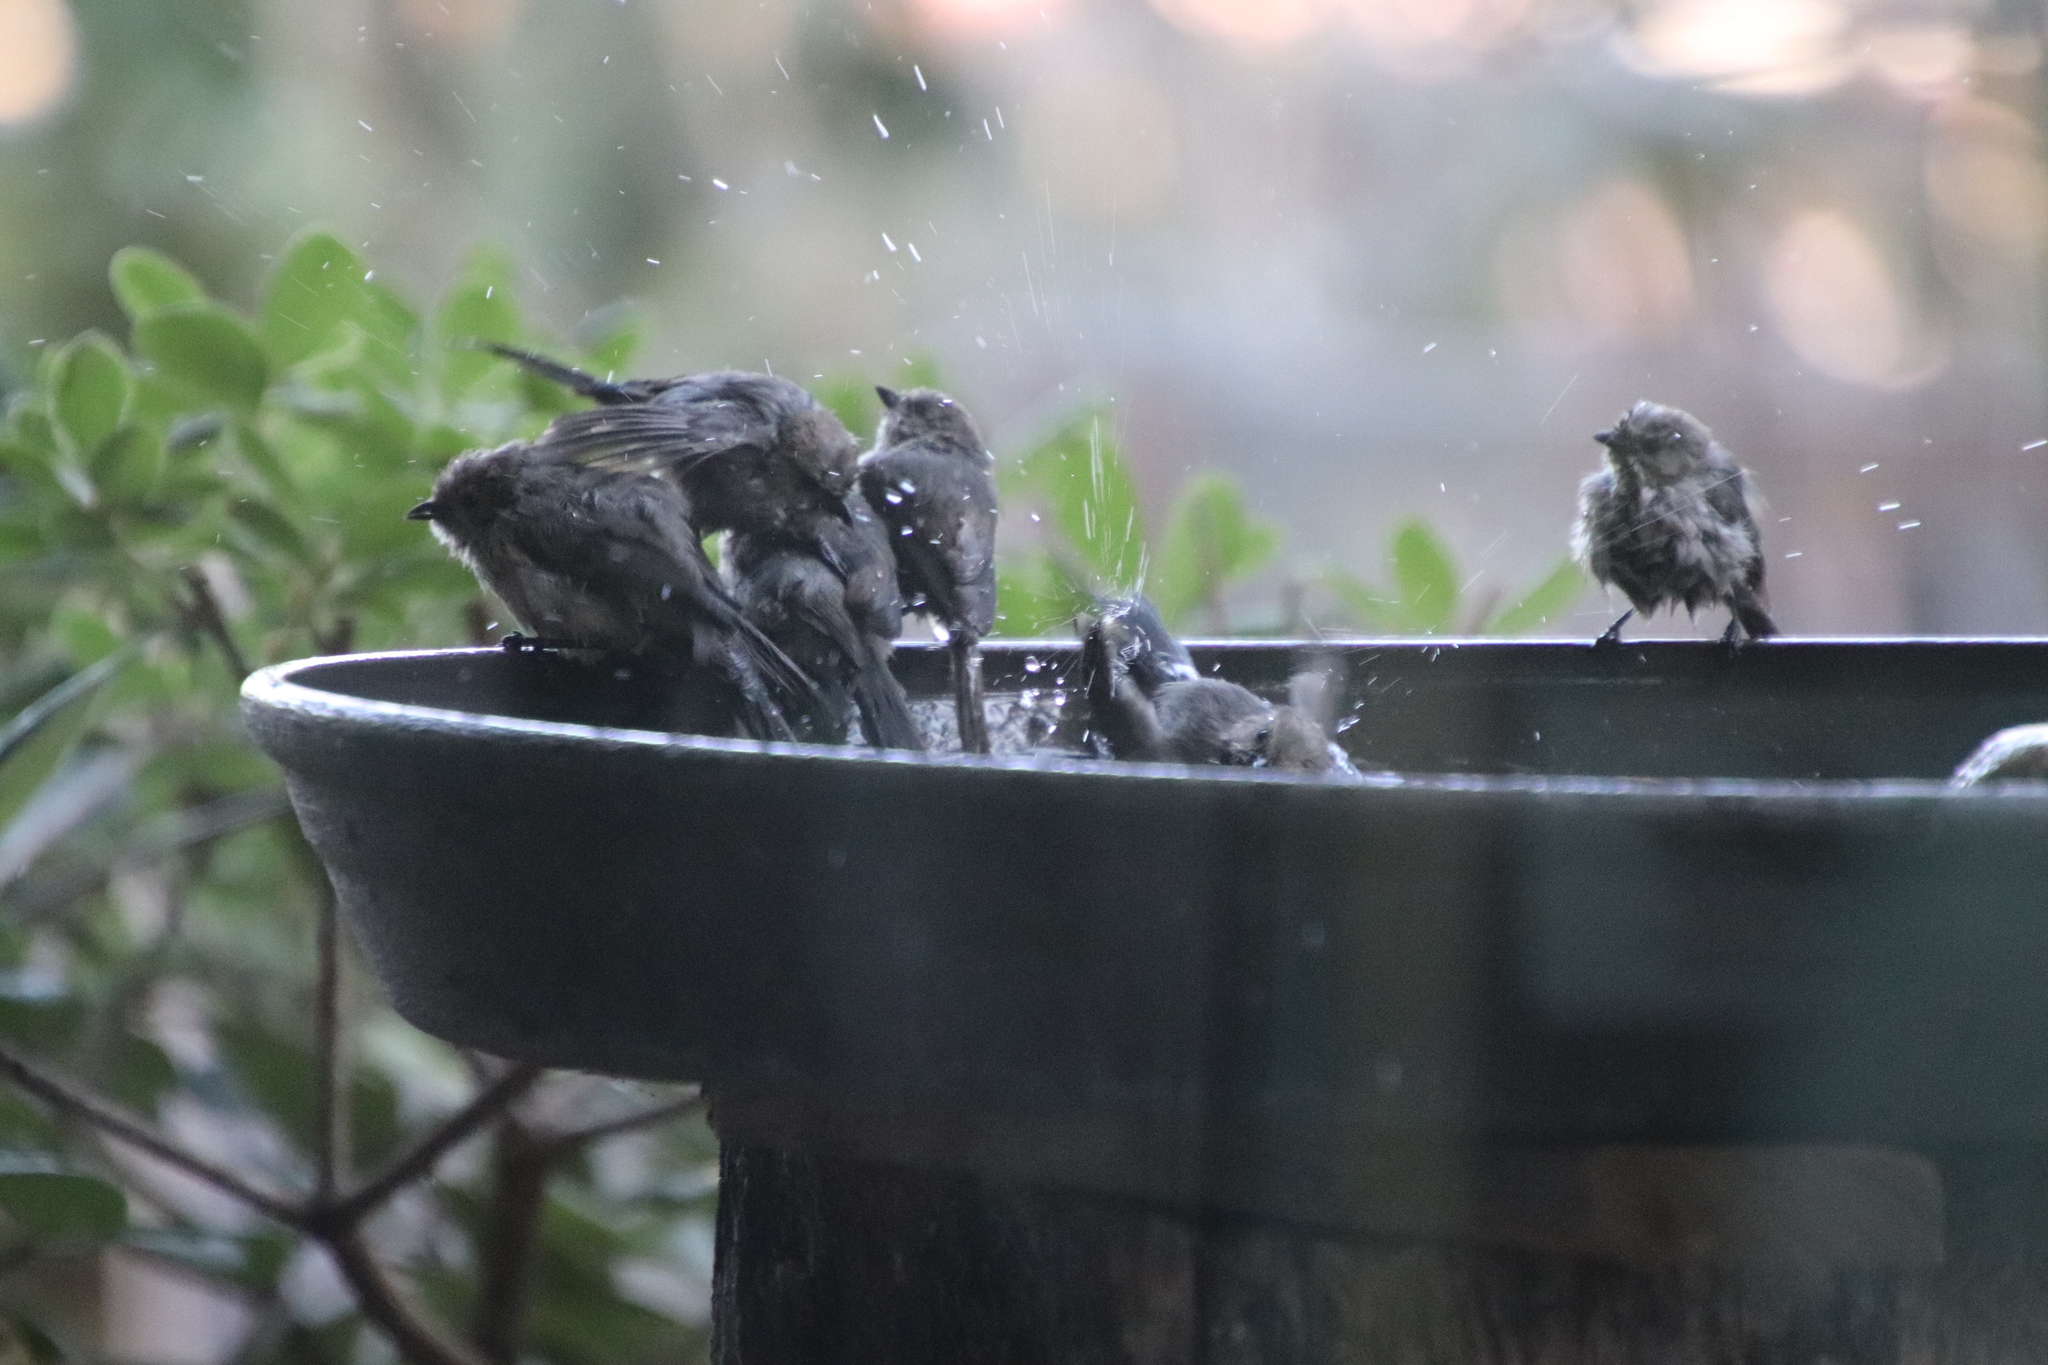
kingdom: Animalia
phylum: Chordata
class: Aves
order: Passeriformes
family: Aegithalidae
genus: Psaltriparus
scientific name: Psaltriparus minimus
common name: American bushtit
